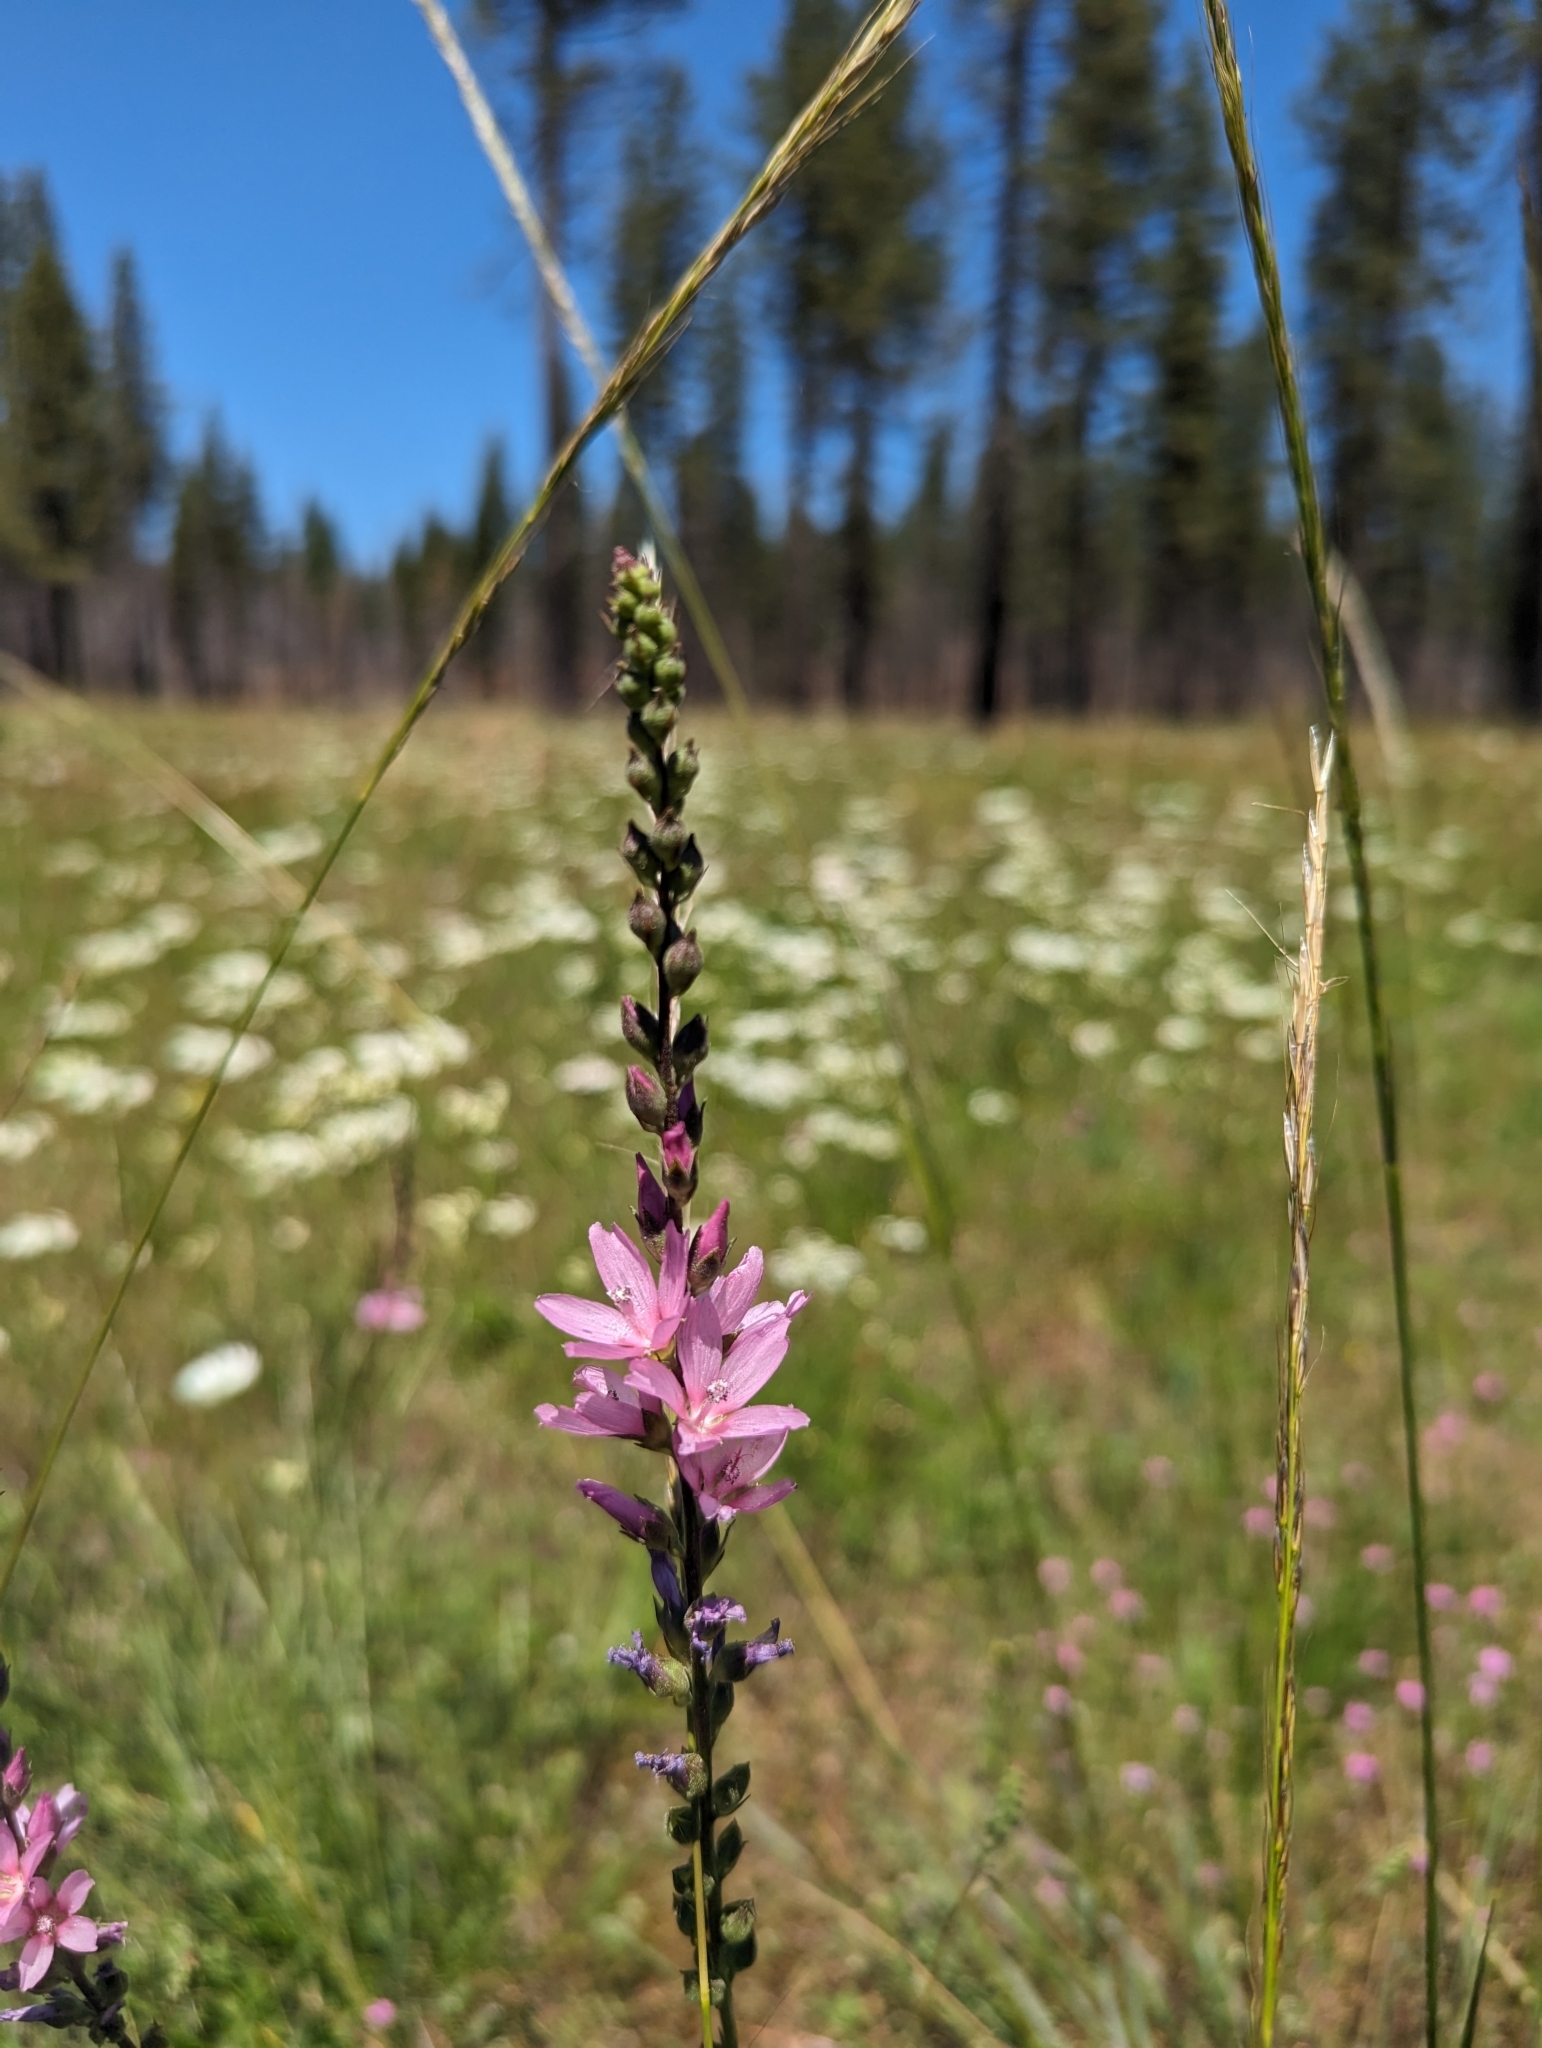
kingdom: Plantae
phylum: Tracheophyta
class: Magnoliopsida
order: Malvales
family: Malvaceae
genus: Sidalcea
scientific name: Sidalcea oregana
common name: Oregon checker-mallow
